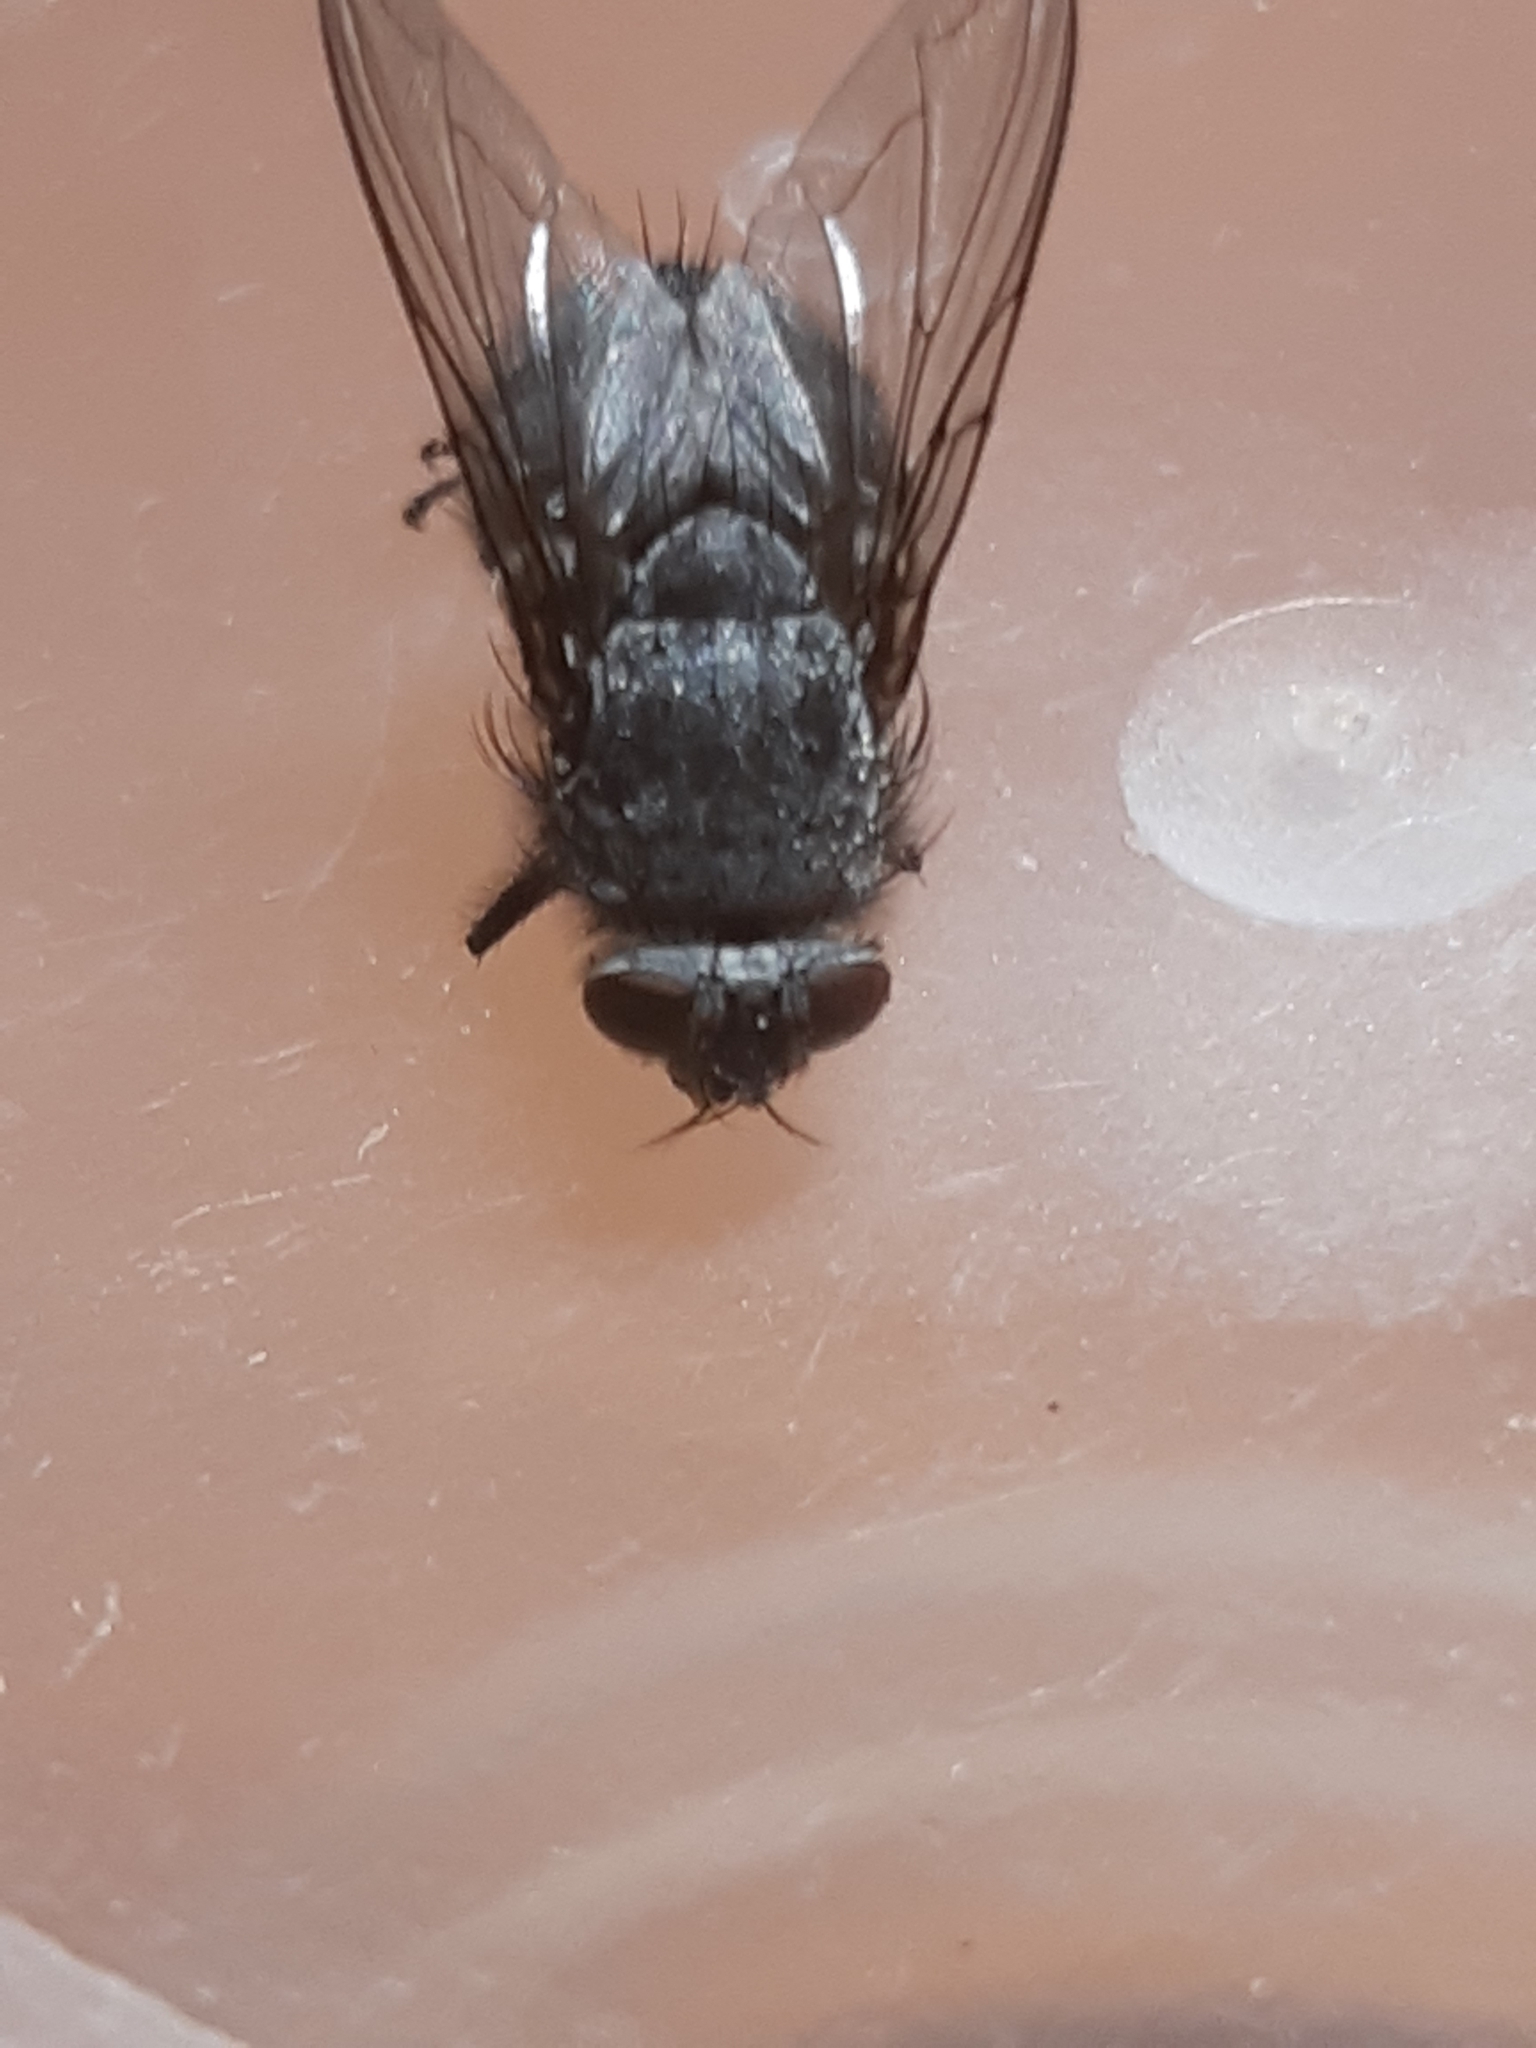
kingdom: Animalia
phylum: Arthropoda
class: Insecta
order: Diptera
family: Calliphoridae
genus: Calliphora
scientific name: Calliphora vicina
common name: Common blow flie
